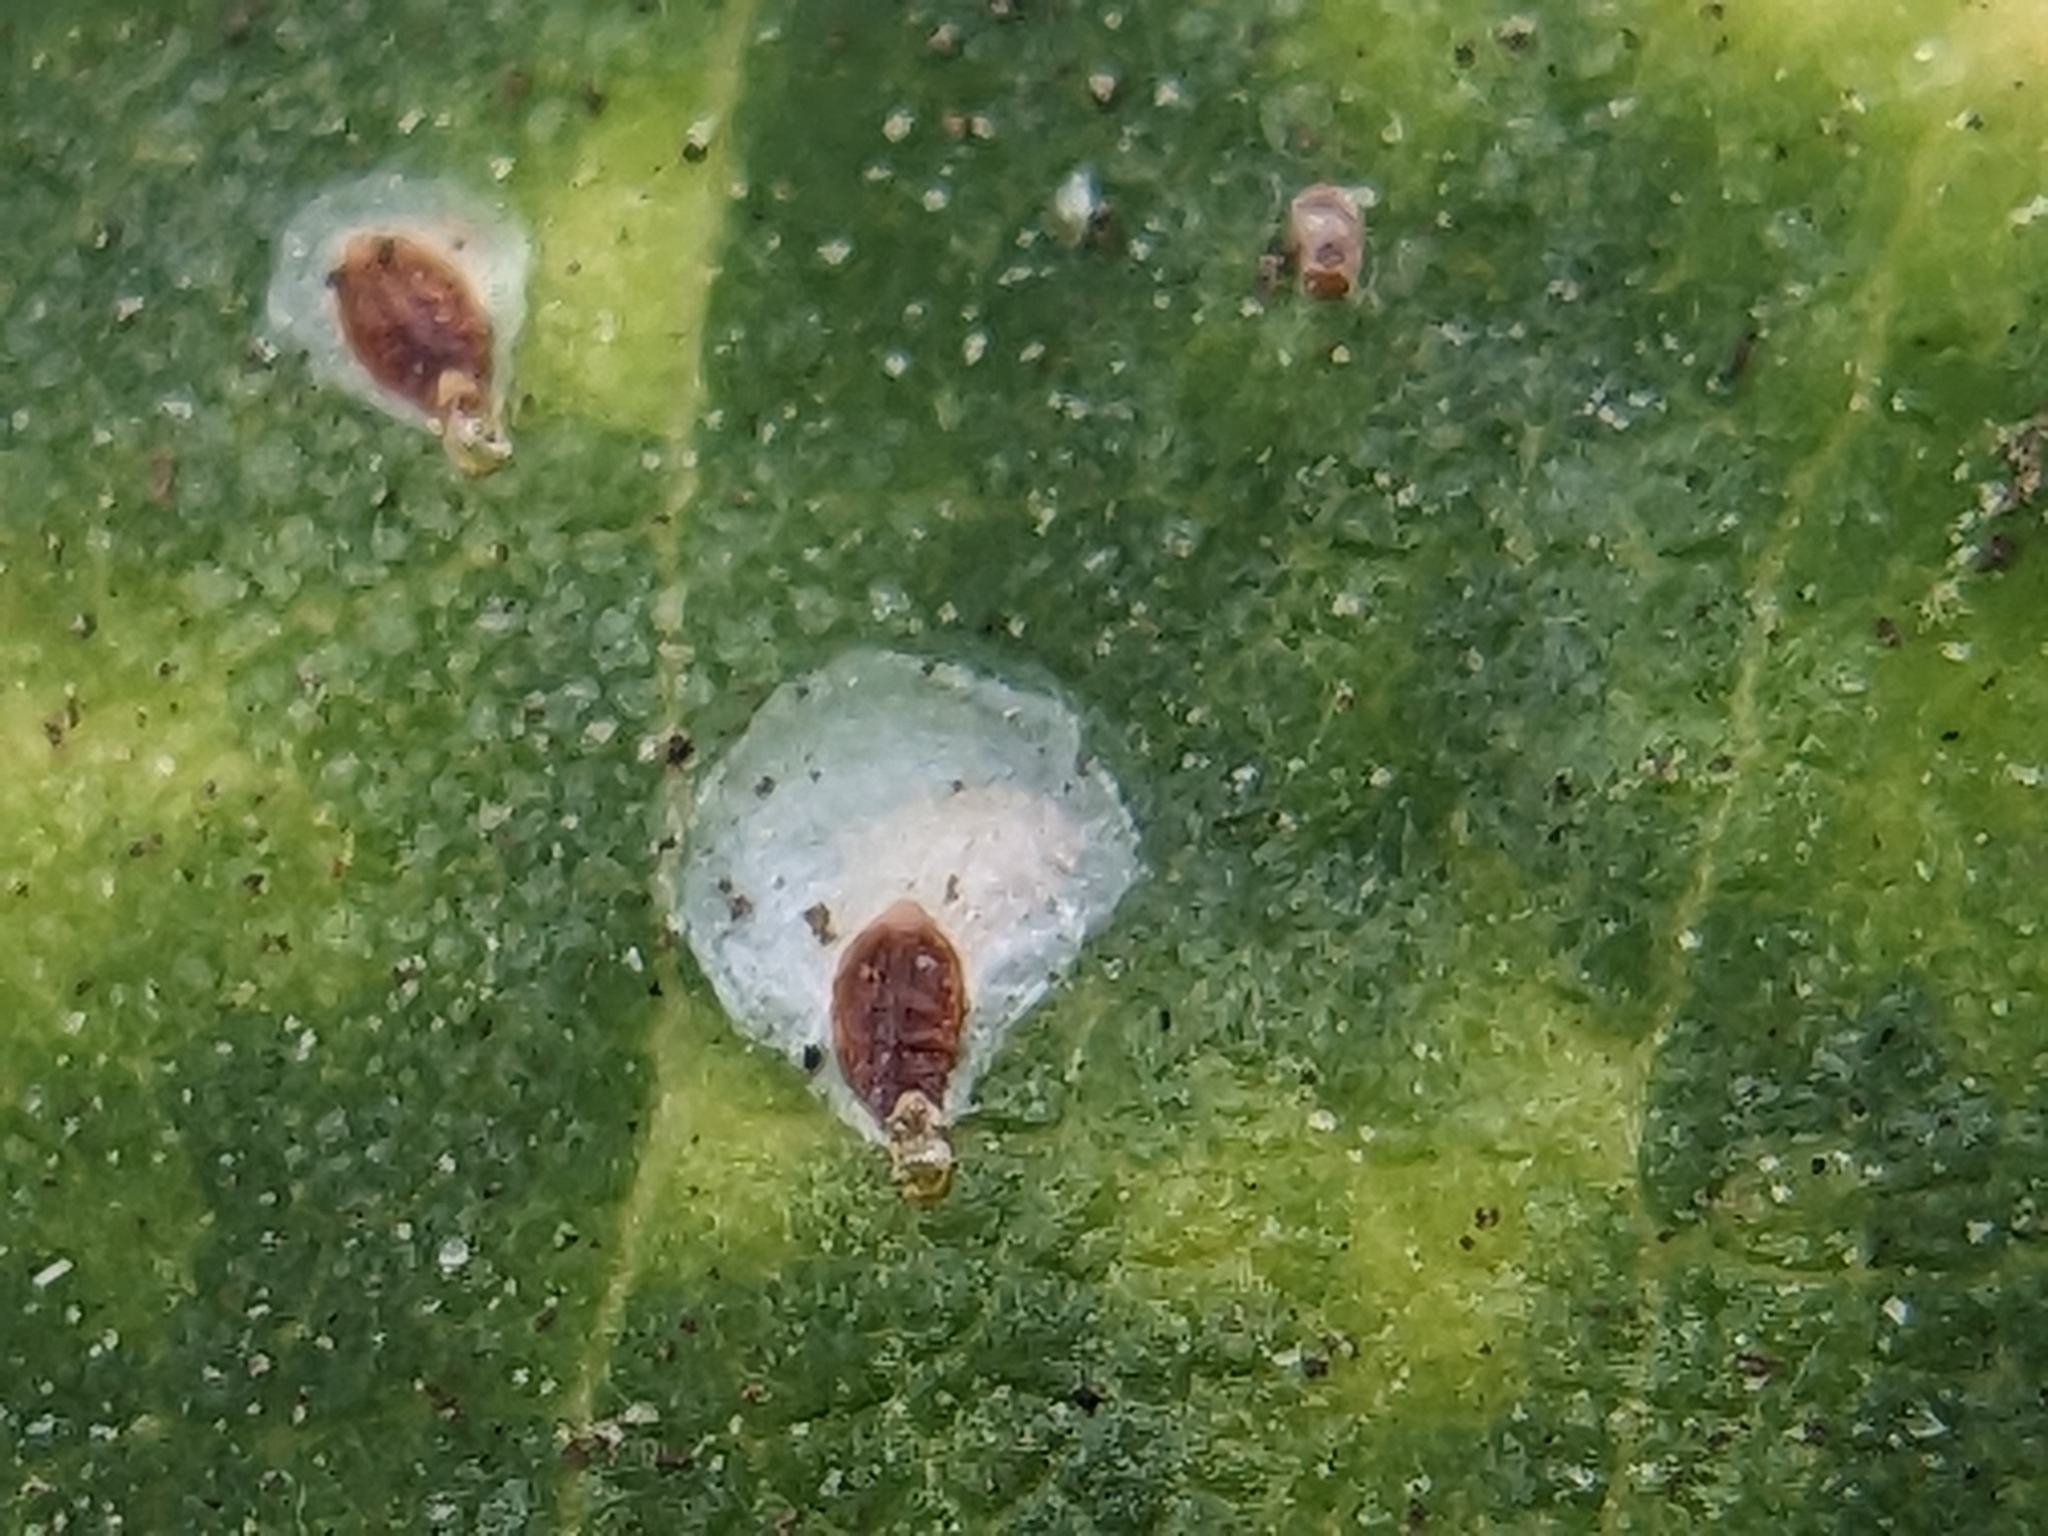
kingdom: Animalia
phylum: Arthropoda
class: Insecta
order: Hemiptera
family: Diaspididae
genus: Pseudaulacaspis
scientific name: Pseudaulacaspis cockerelli
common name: False oleander scale
